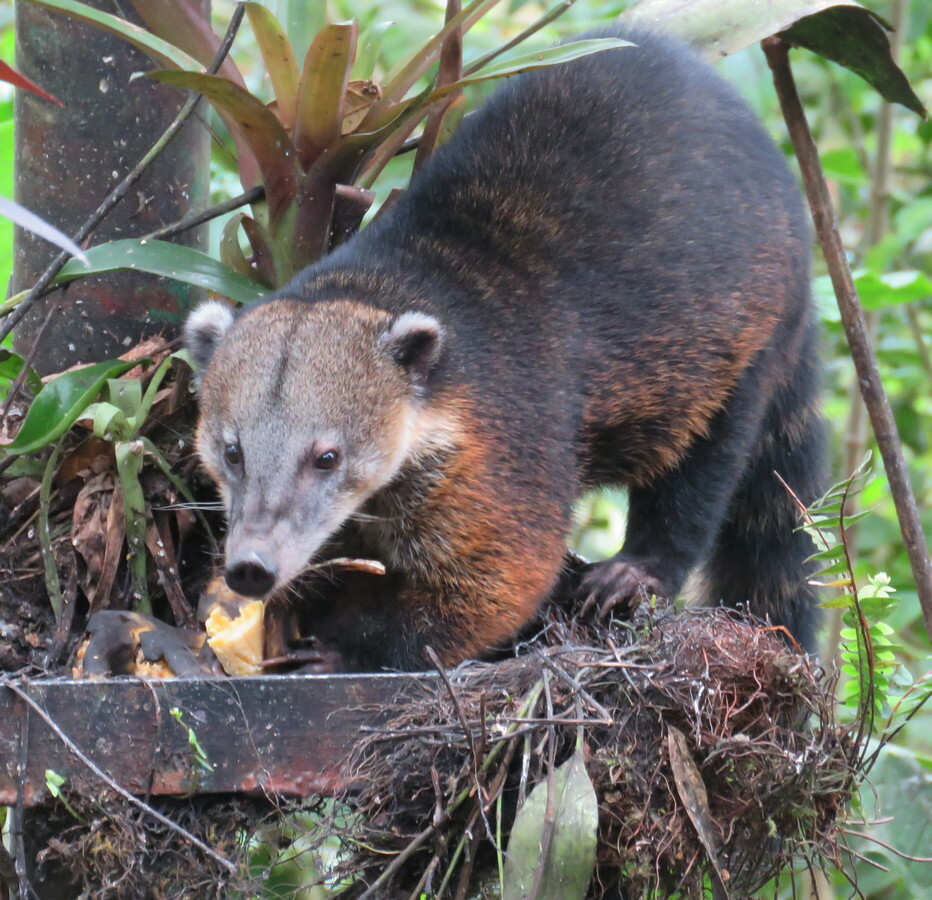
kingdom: Animalia
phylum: Chordata
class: Mammalia
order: Carnivora
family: Procyonidae
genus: Nasua
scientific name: Nasua olivacea
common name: Mountain coati
